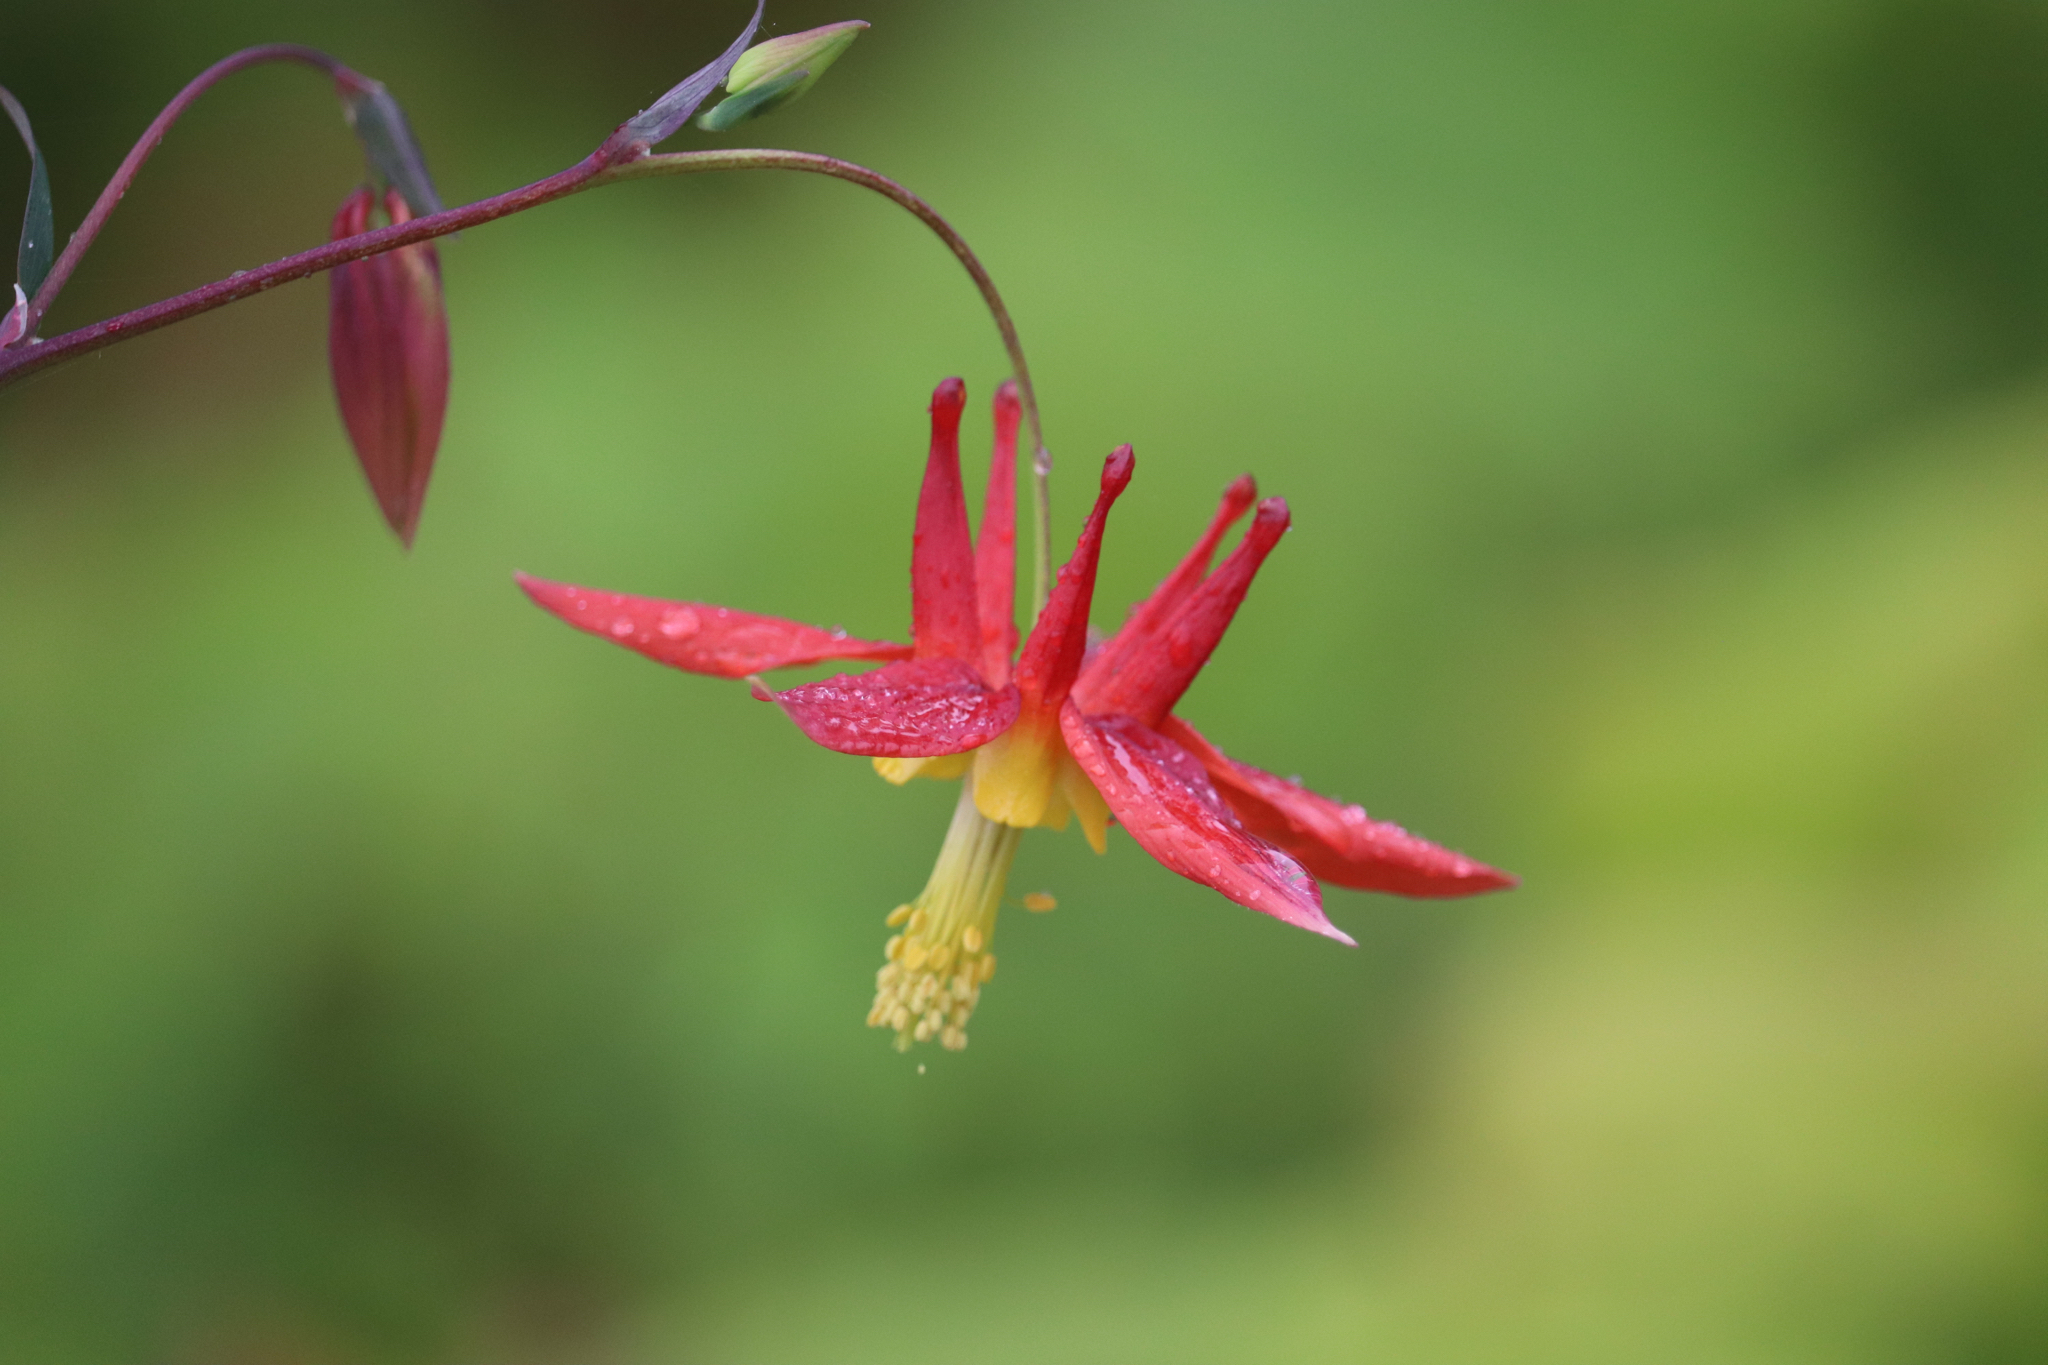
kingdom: Plantae
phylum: Tracheophyta
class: Magnoliopsida
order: Ranunculales
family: Ranunculaceae
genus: Aquilegia
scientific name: Aquilegia formosa
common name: Sitka columbine
